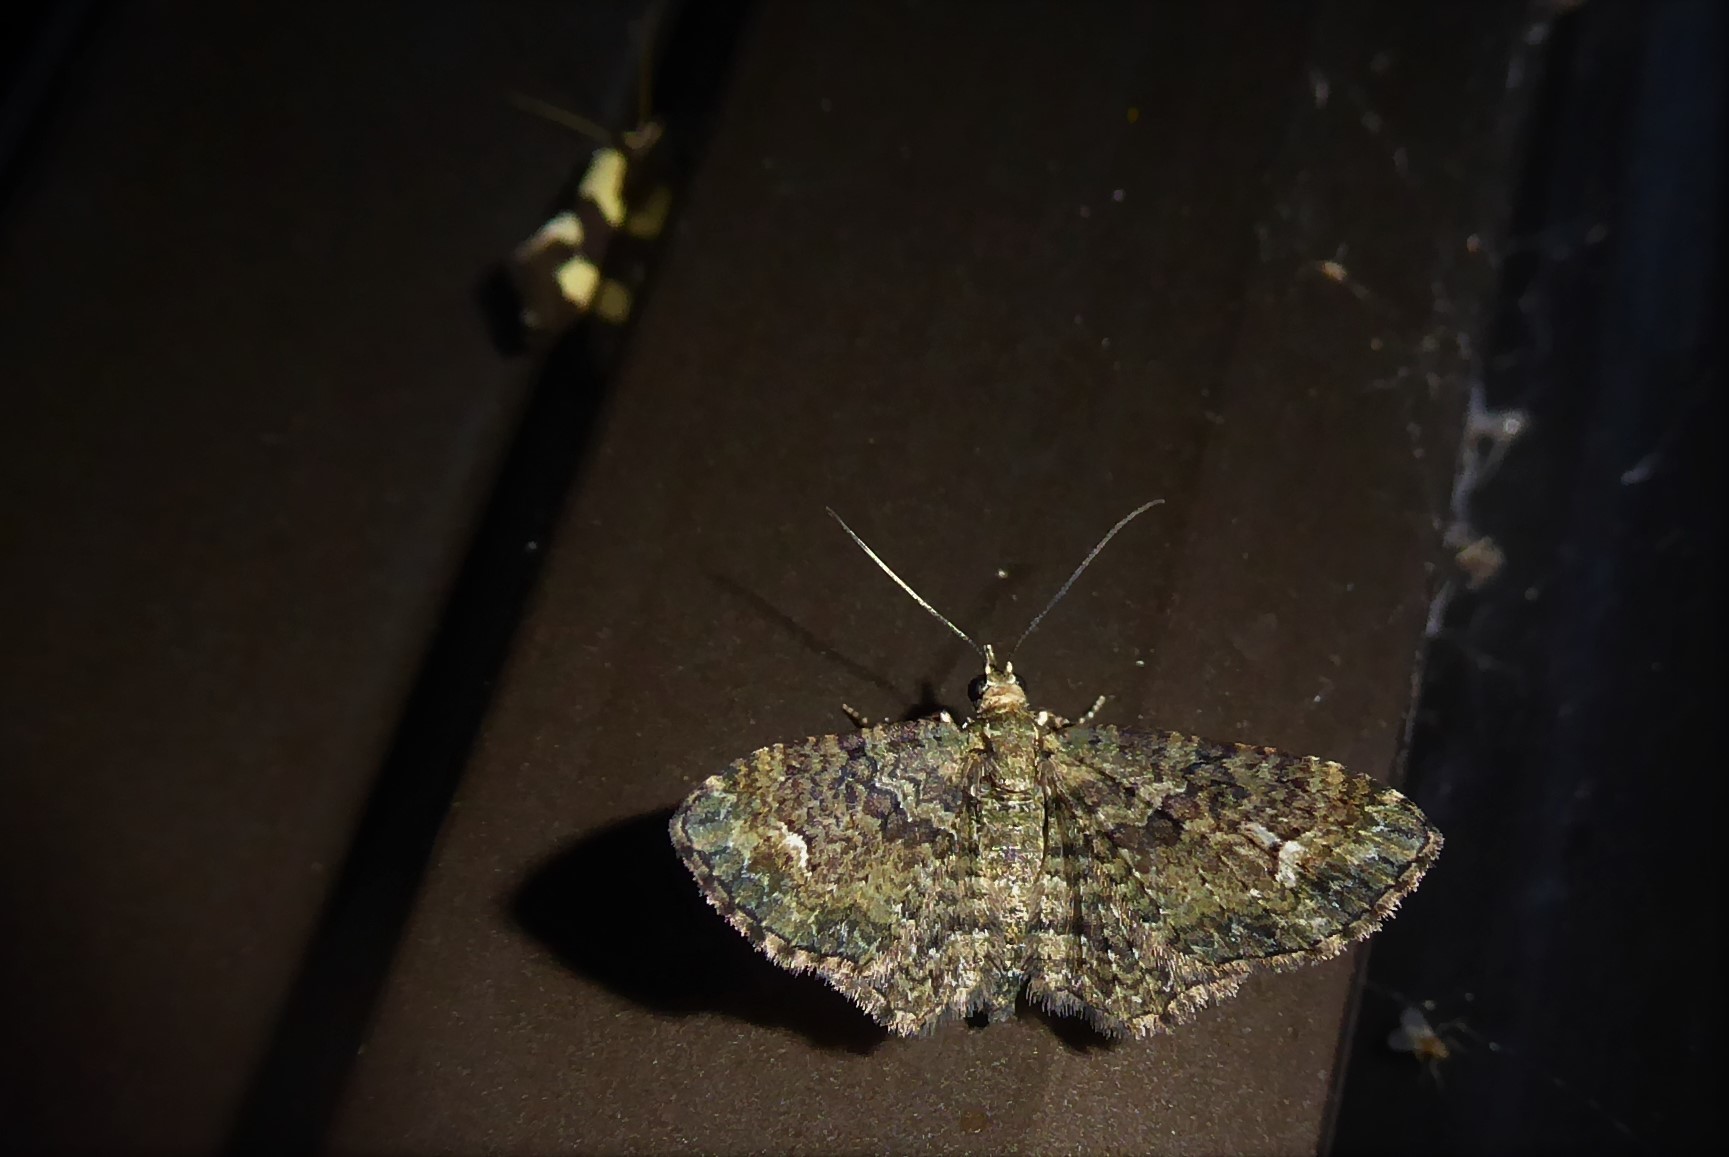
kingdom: Animalia
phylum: Arthropoda
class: Insecta
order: Lepidoptera
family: Geometridae
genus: Pasiphilodes
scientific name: Pasiphilodes testulata
